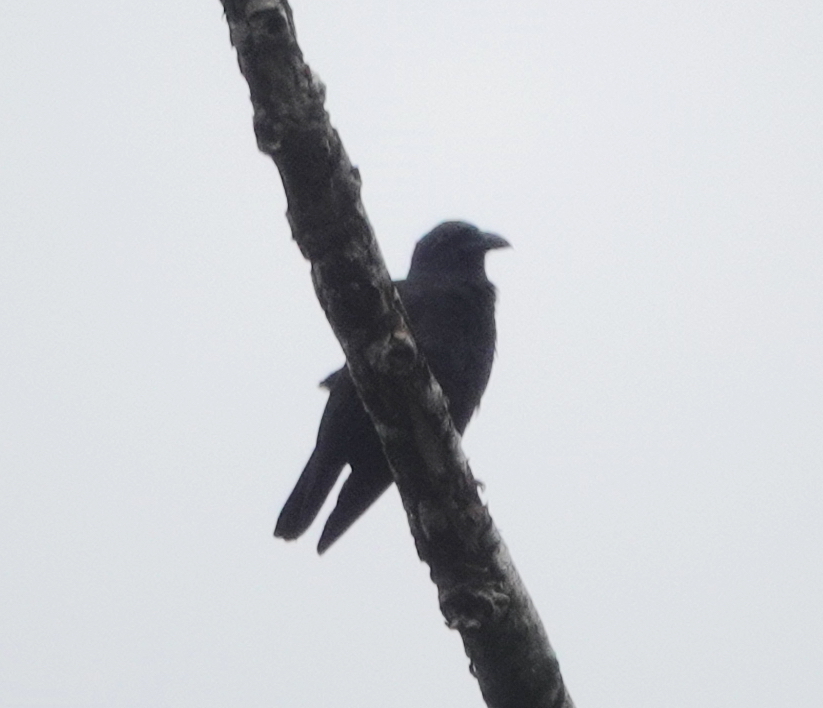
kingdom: Animalia
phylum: Chordata
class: Aves
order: Passeriformes
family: Corvidae
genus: Corvus
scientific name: Corvus violaceus
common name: Violet crow
